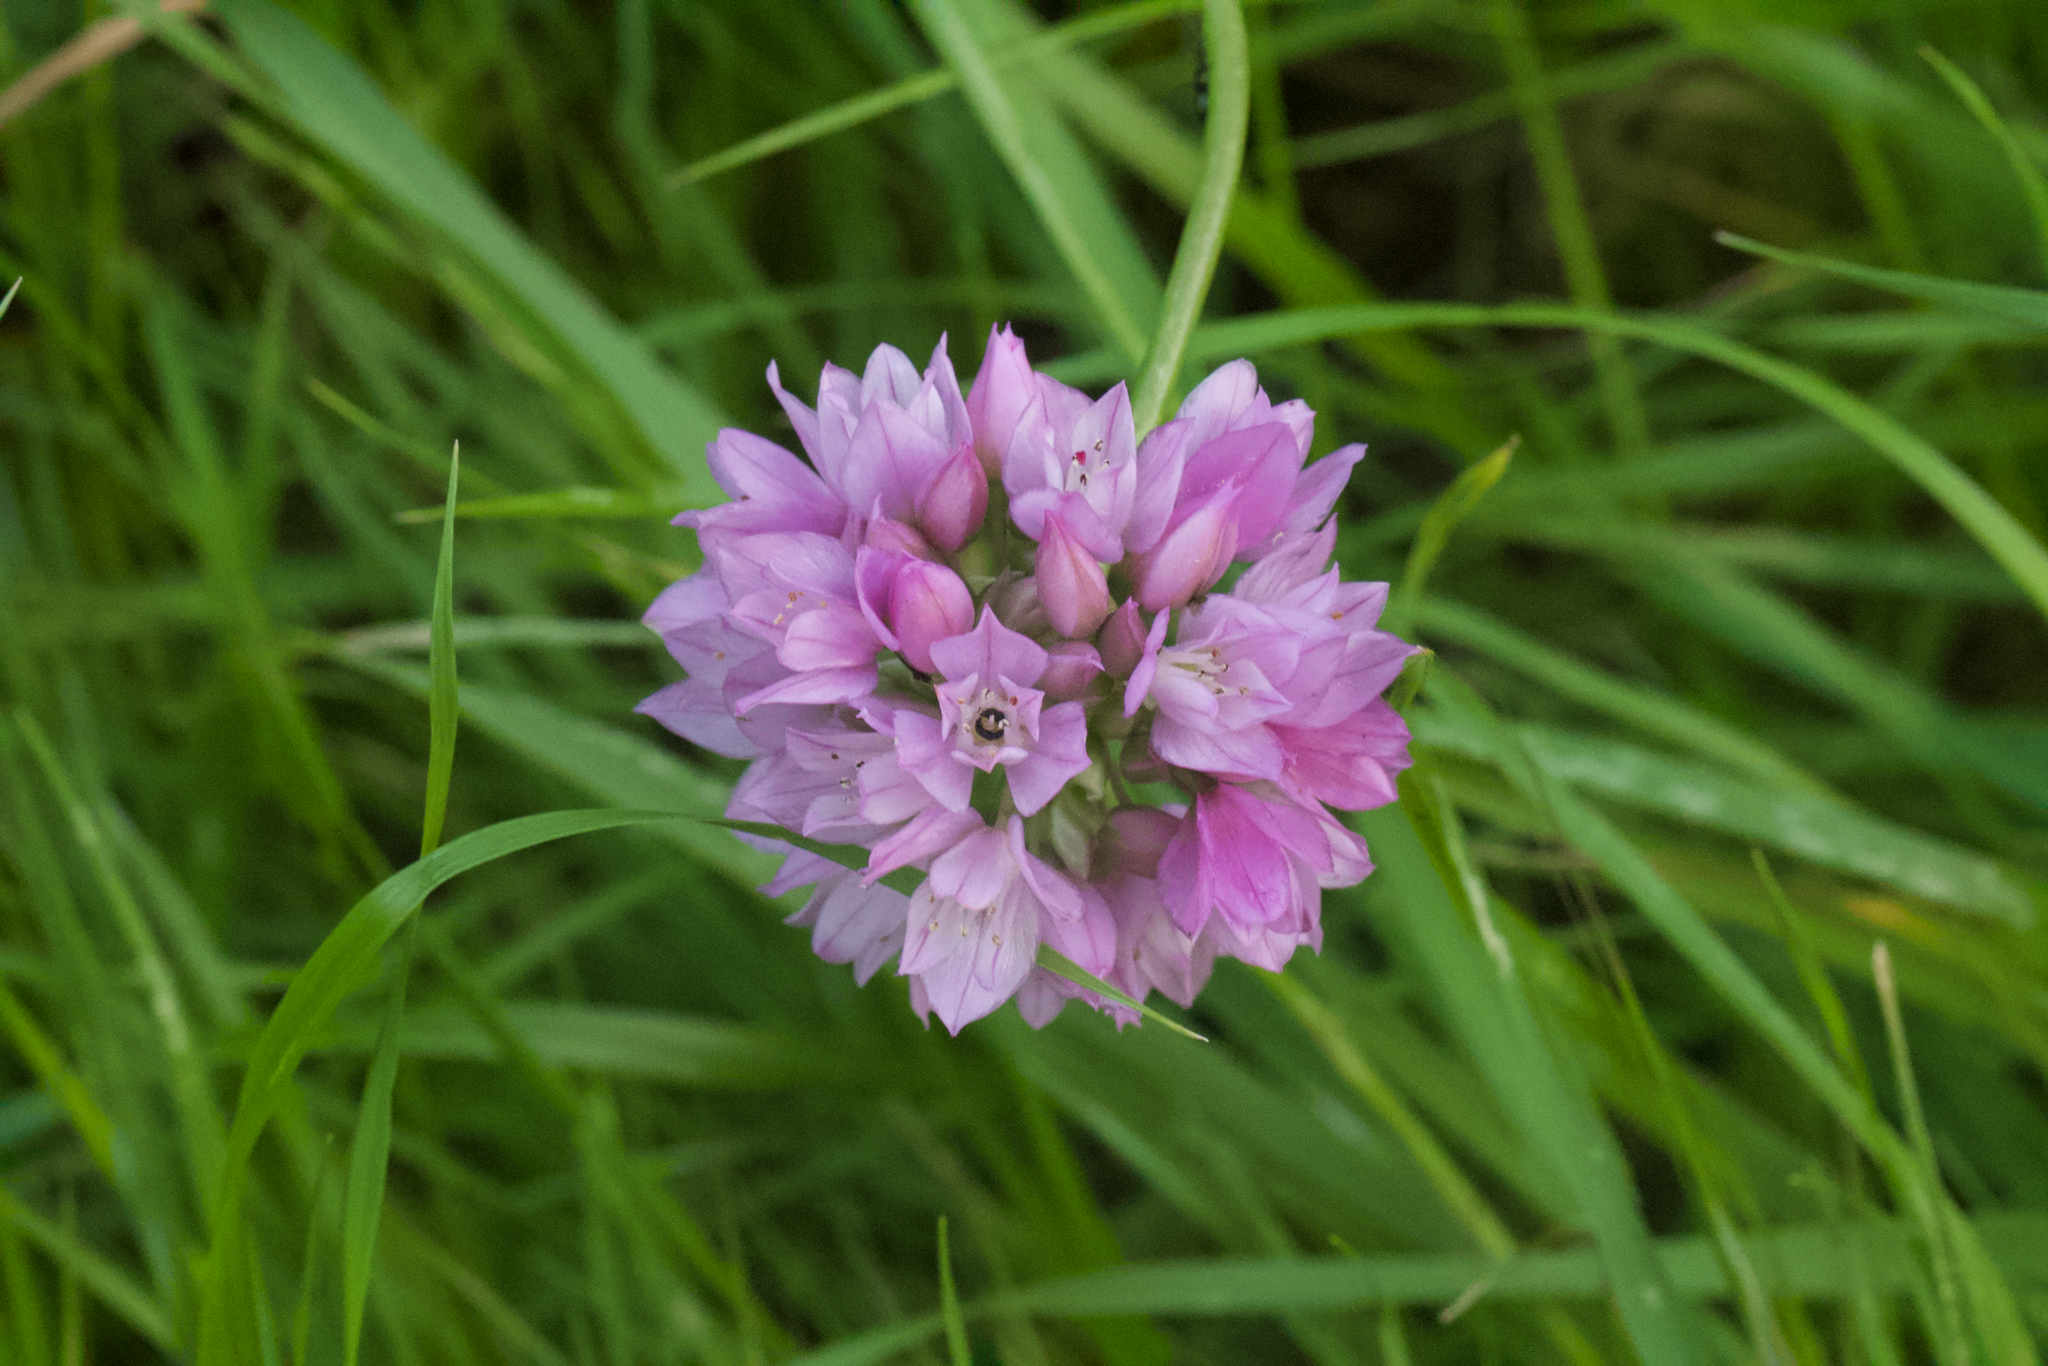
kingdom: Plantae
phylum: Tracheophyta
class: Liliopsida
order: Asparagales
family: Amaryllidaceae
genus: Allium
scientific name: Allium serra
